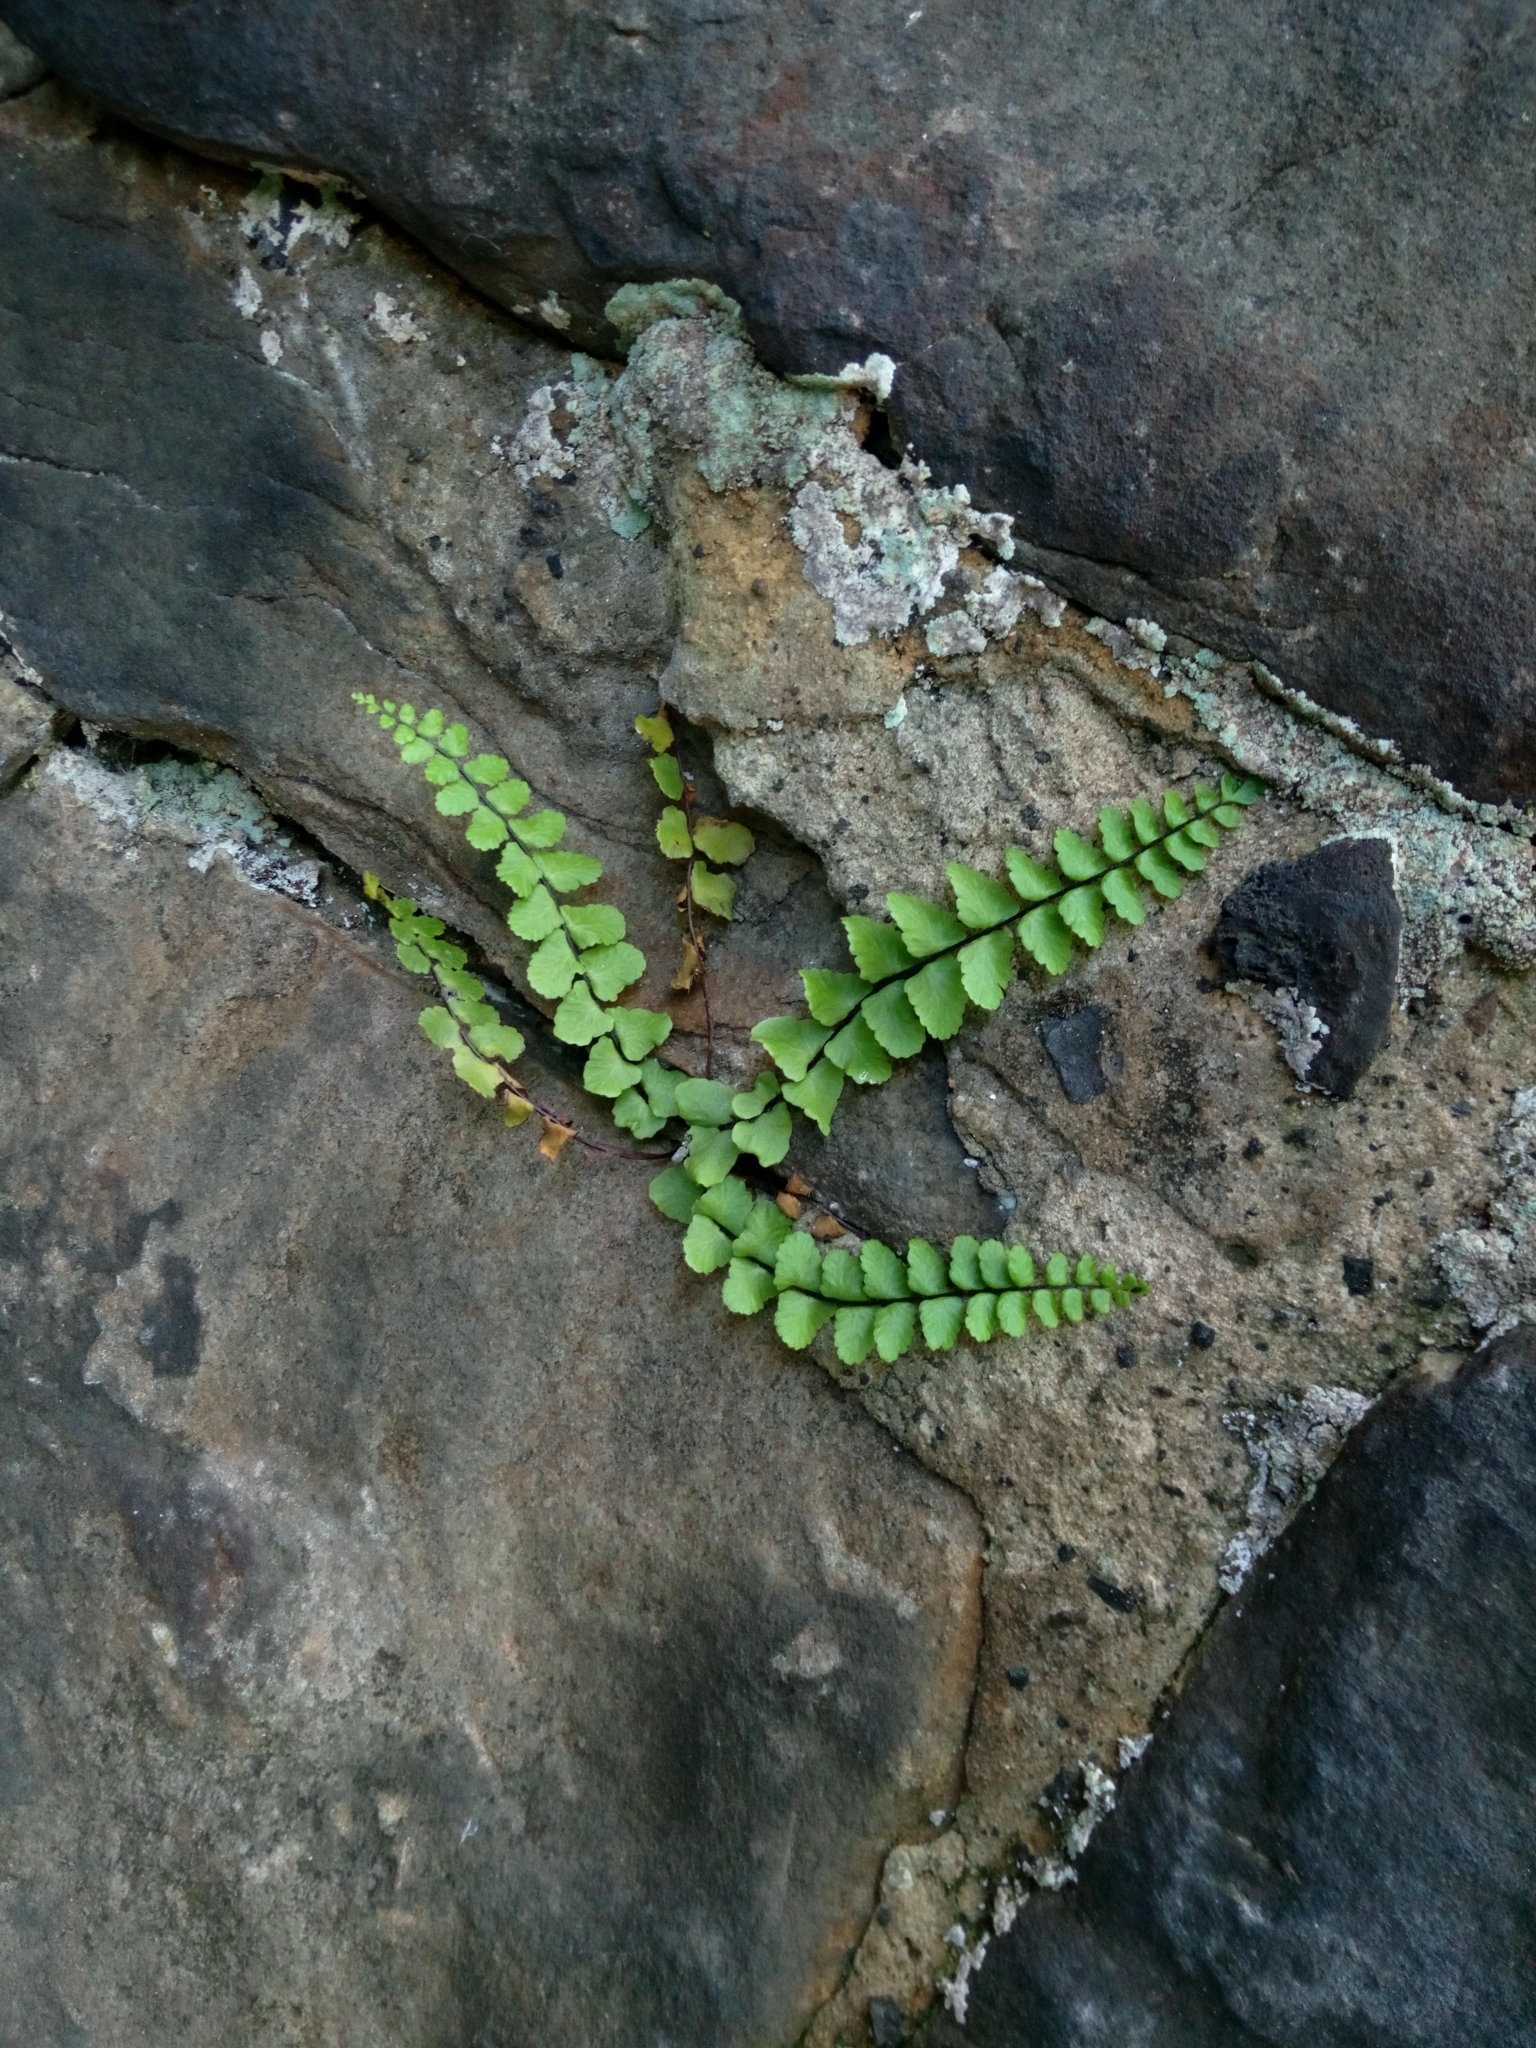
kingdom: Plantae
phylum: Tracheophyta
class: Polypodiopsida
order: Polypodiales
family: Aspleniaceae
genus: Asplenium
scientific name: Asplenium trichomanes
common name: Maidenhair spleenwort
